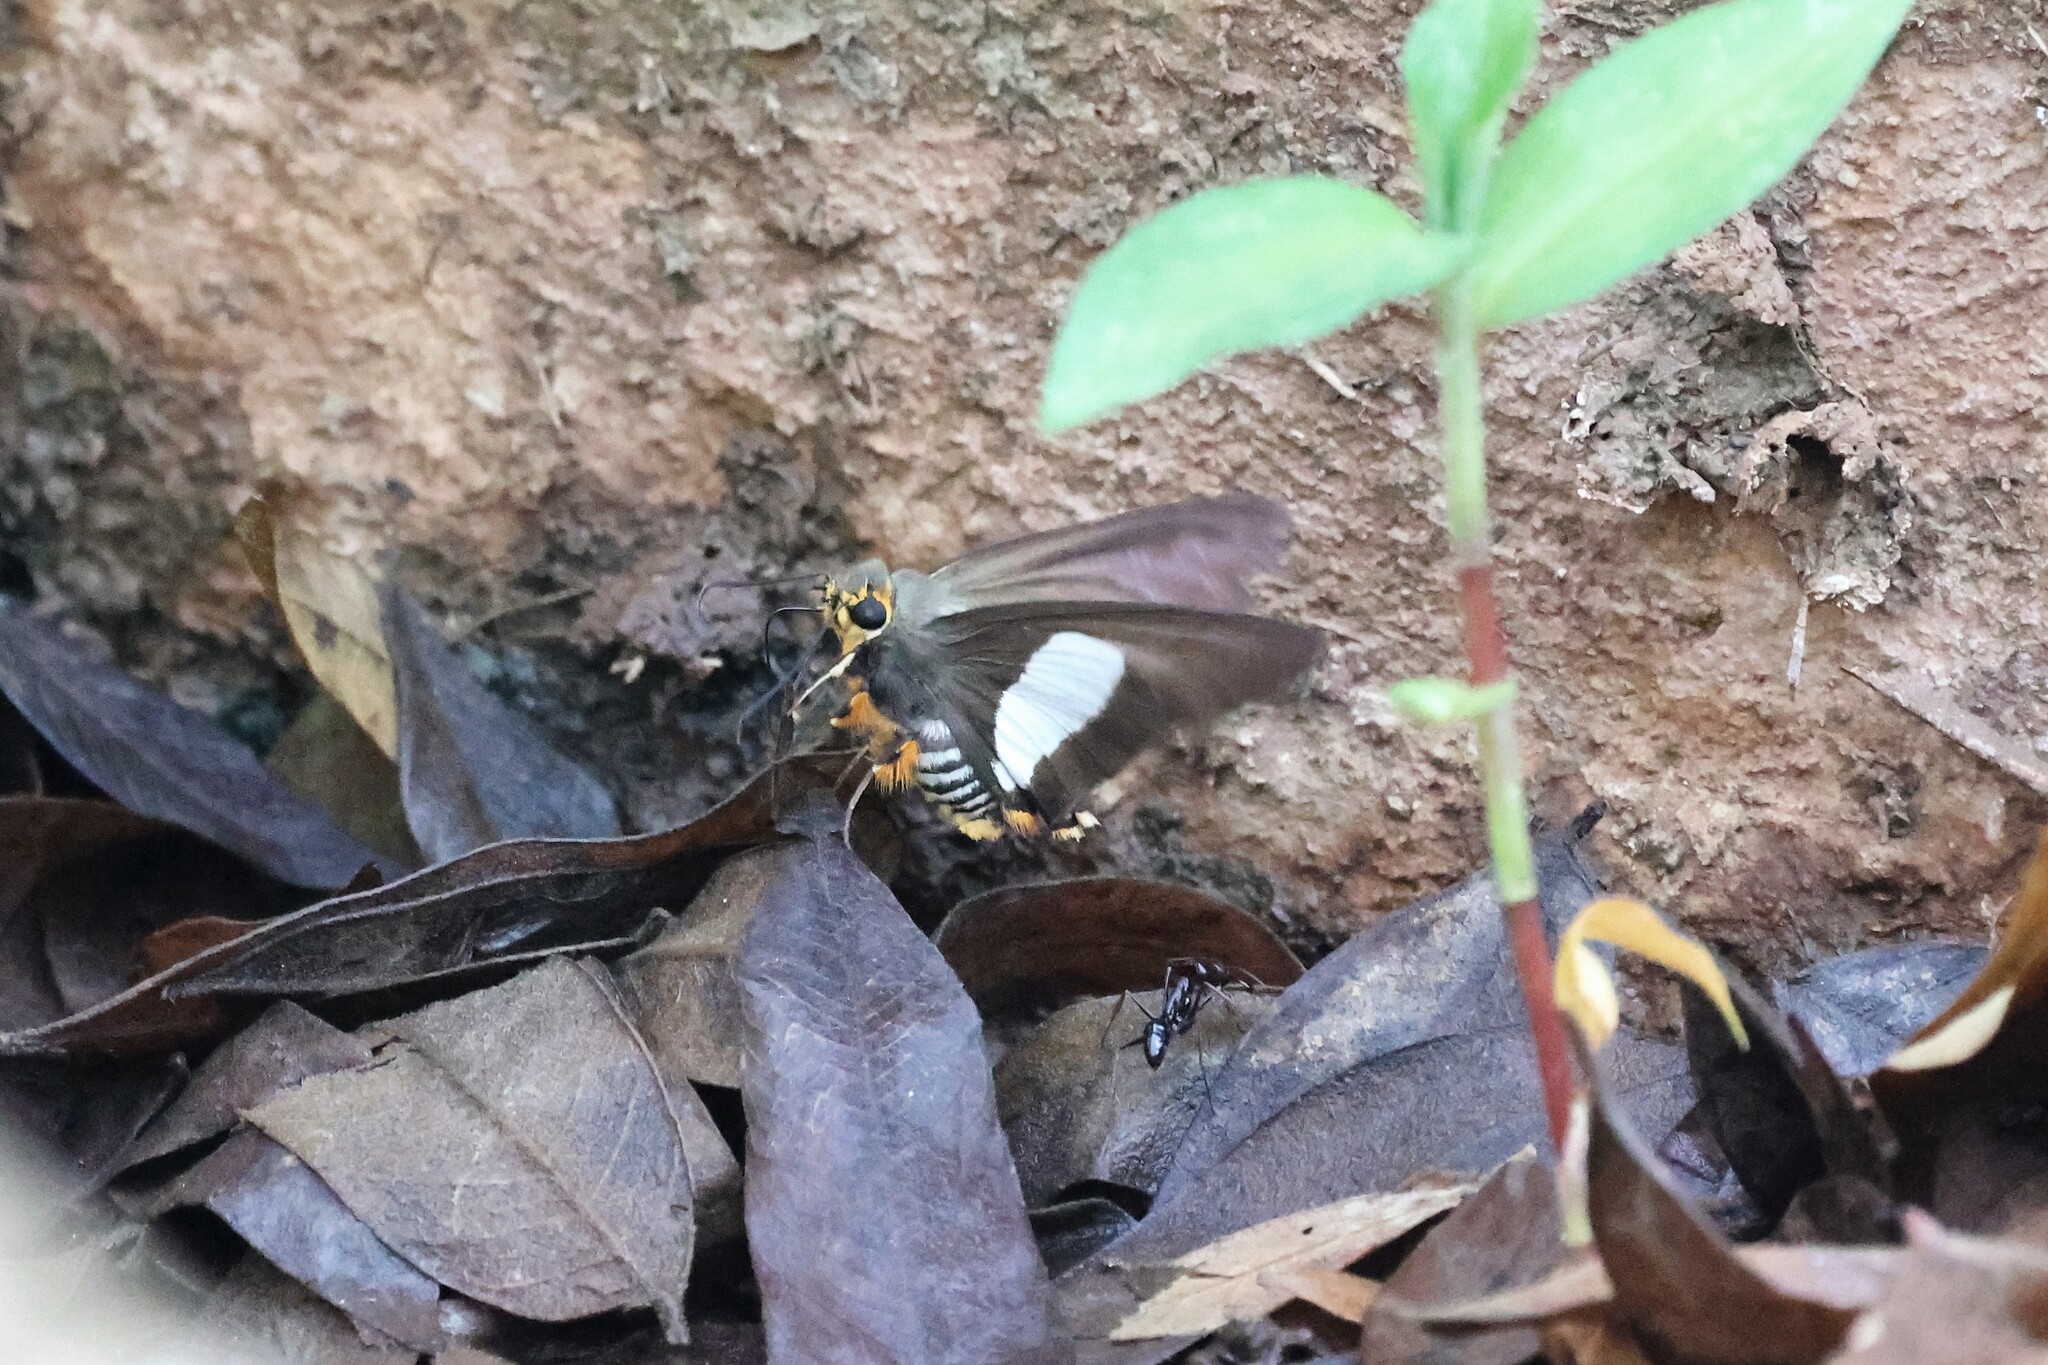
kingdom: Animalia
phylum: Arthropoda
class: Insecta
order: Lepidoptera
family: Hesperiidae
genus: Coeliades
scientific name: Coeliades forestan
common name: Striped policeman
